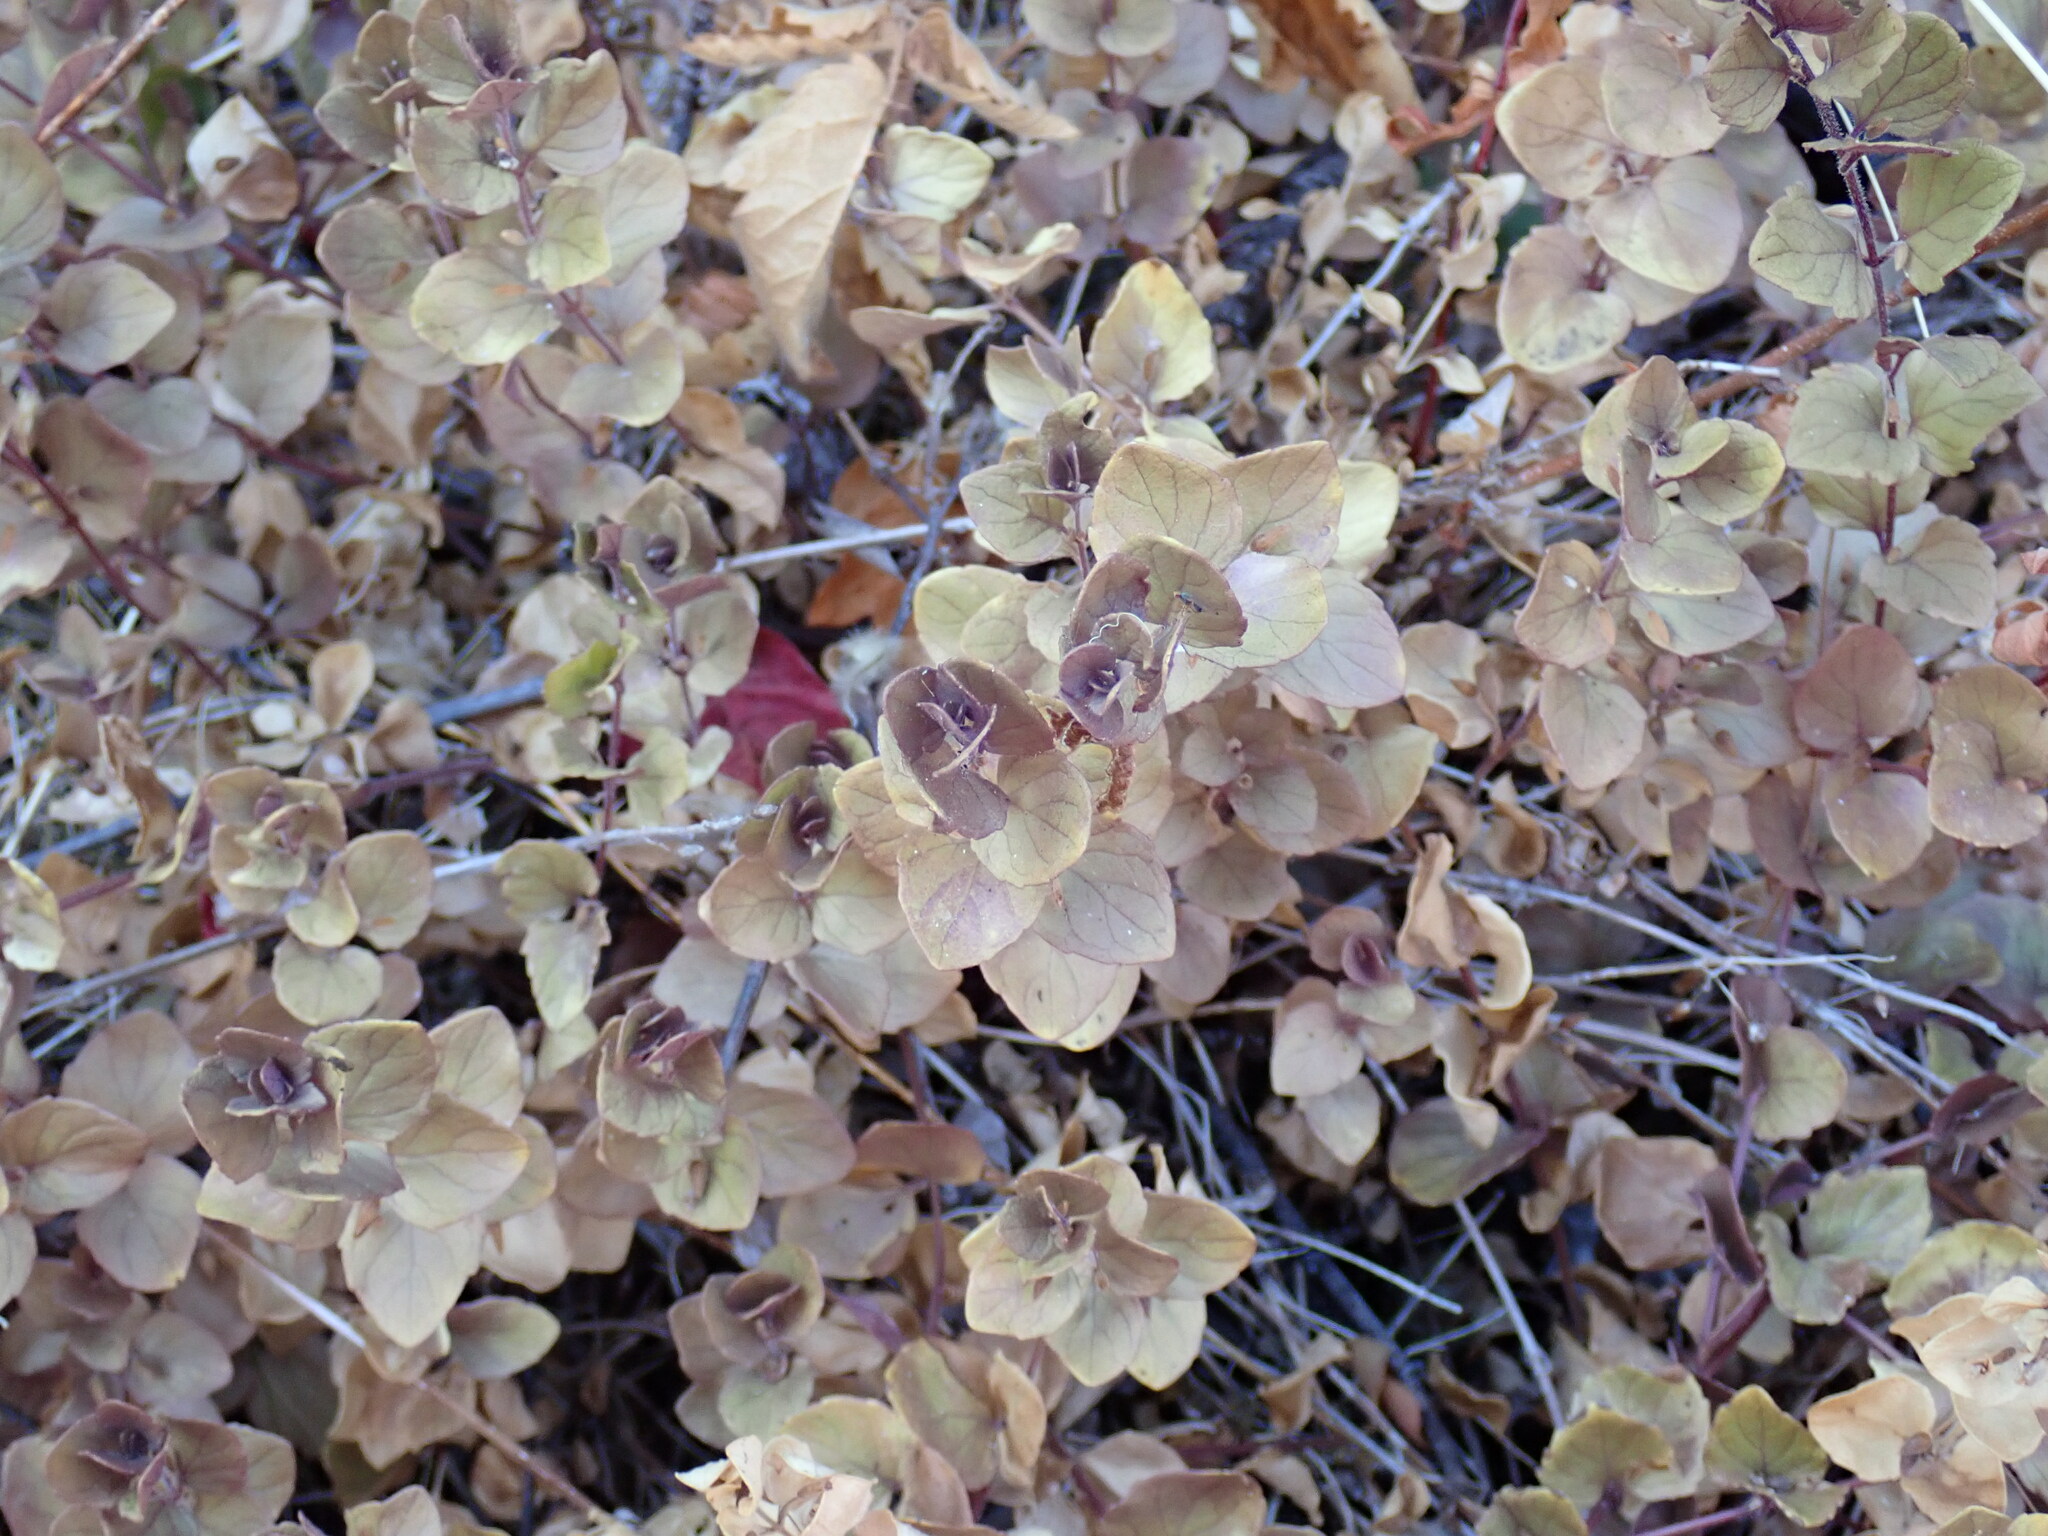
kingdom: Plantae
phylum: Tracheophyta
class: Magnoliopsida
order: Lamiales
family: Lamiaceae
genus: Micromeria
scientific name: Micromeria douglasii
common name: Yerba buena
